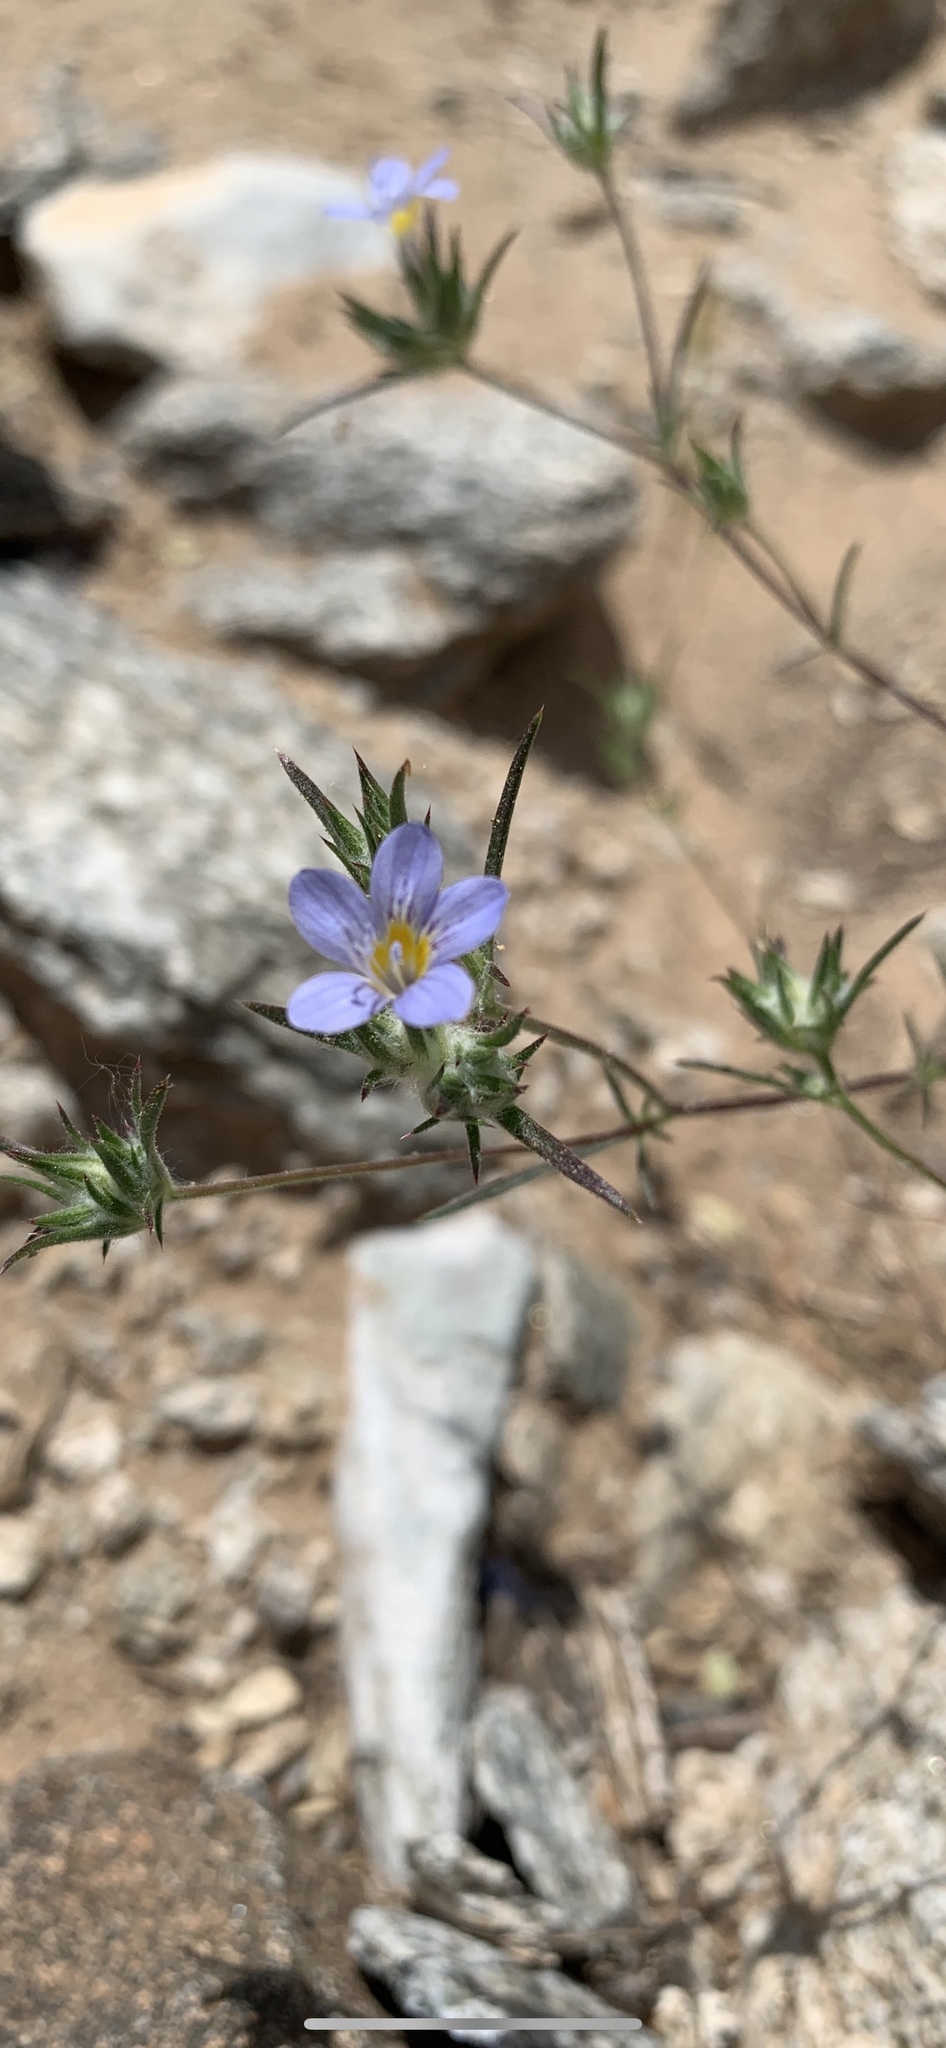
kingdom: Plantae
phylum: Tracheophyta
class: Magnoliopsida
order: Ericales
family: Polemoniaceae
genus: Eriastrum
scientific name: Eriastrum eremicum
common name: Desert eriastrum
